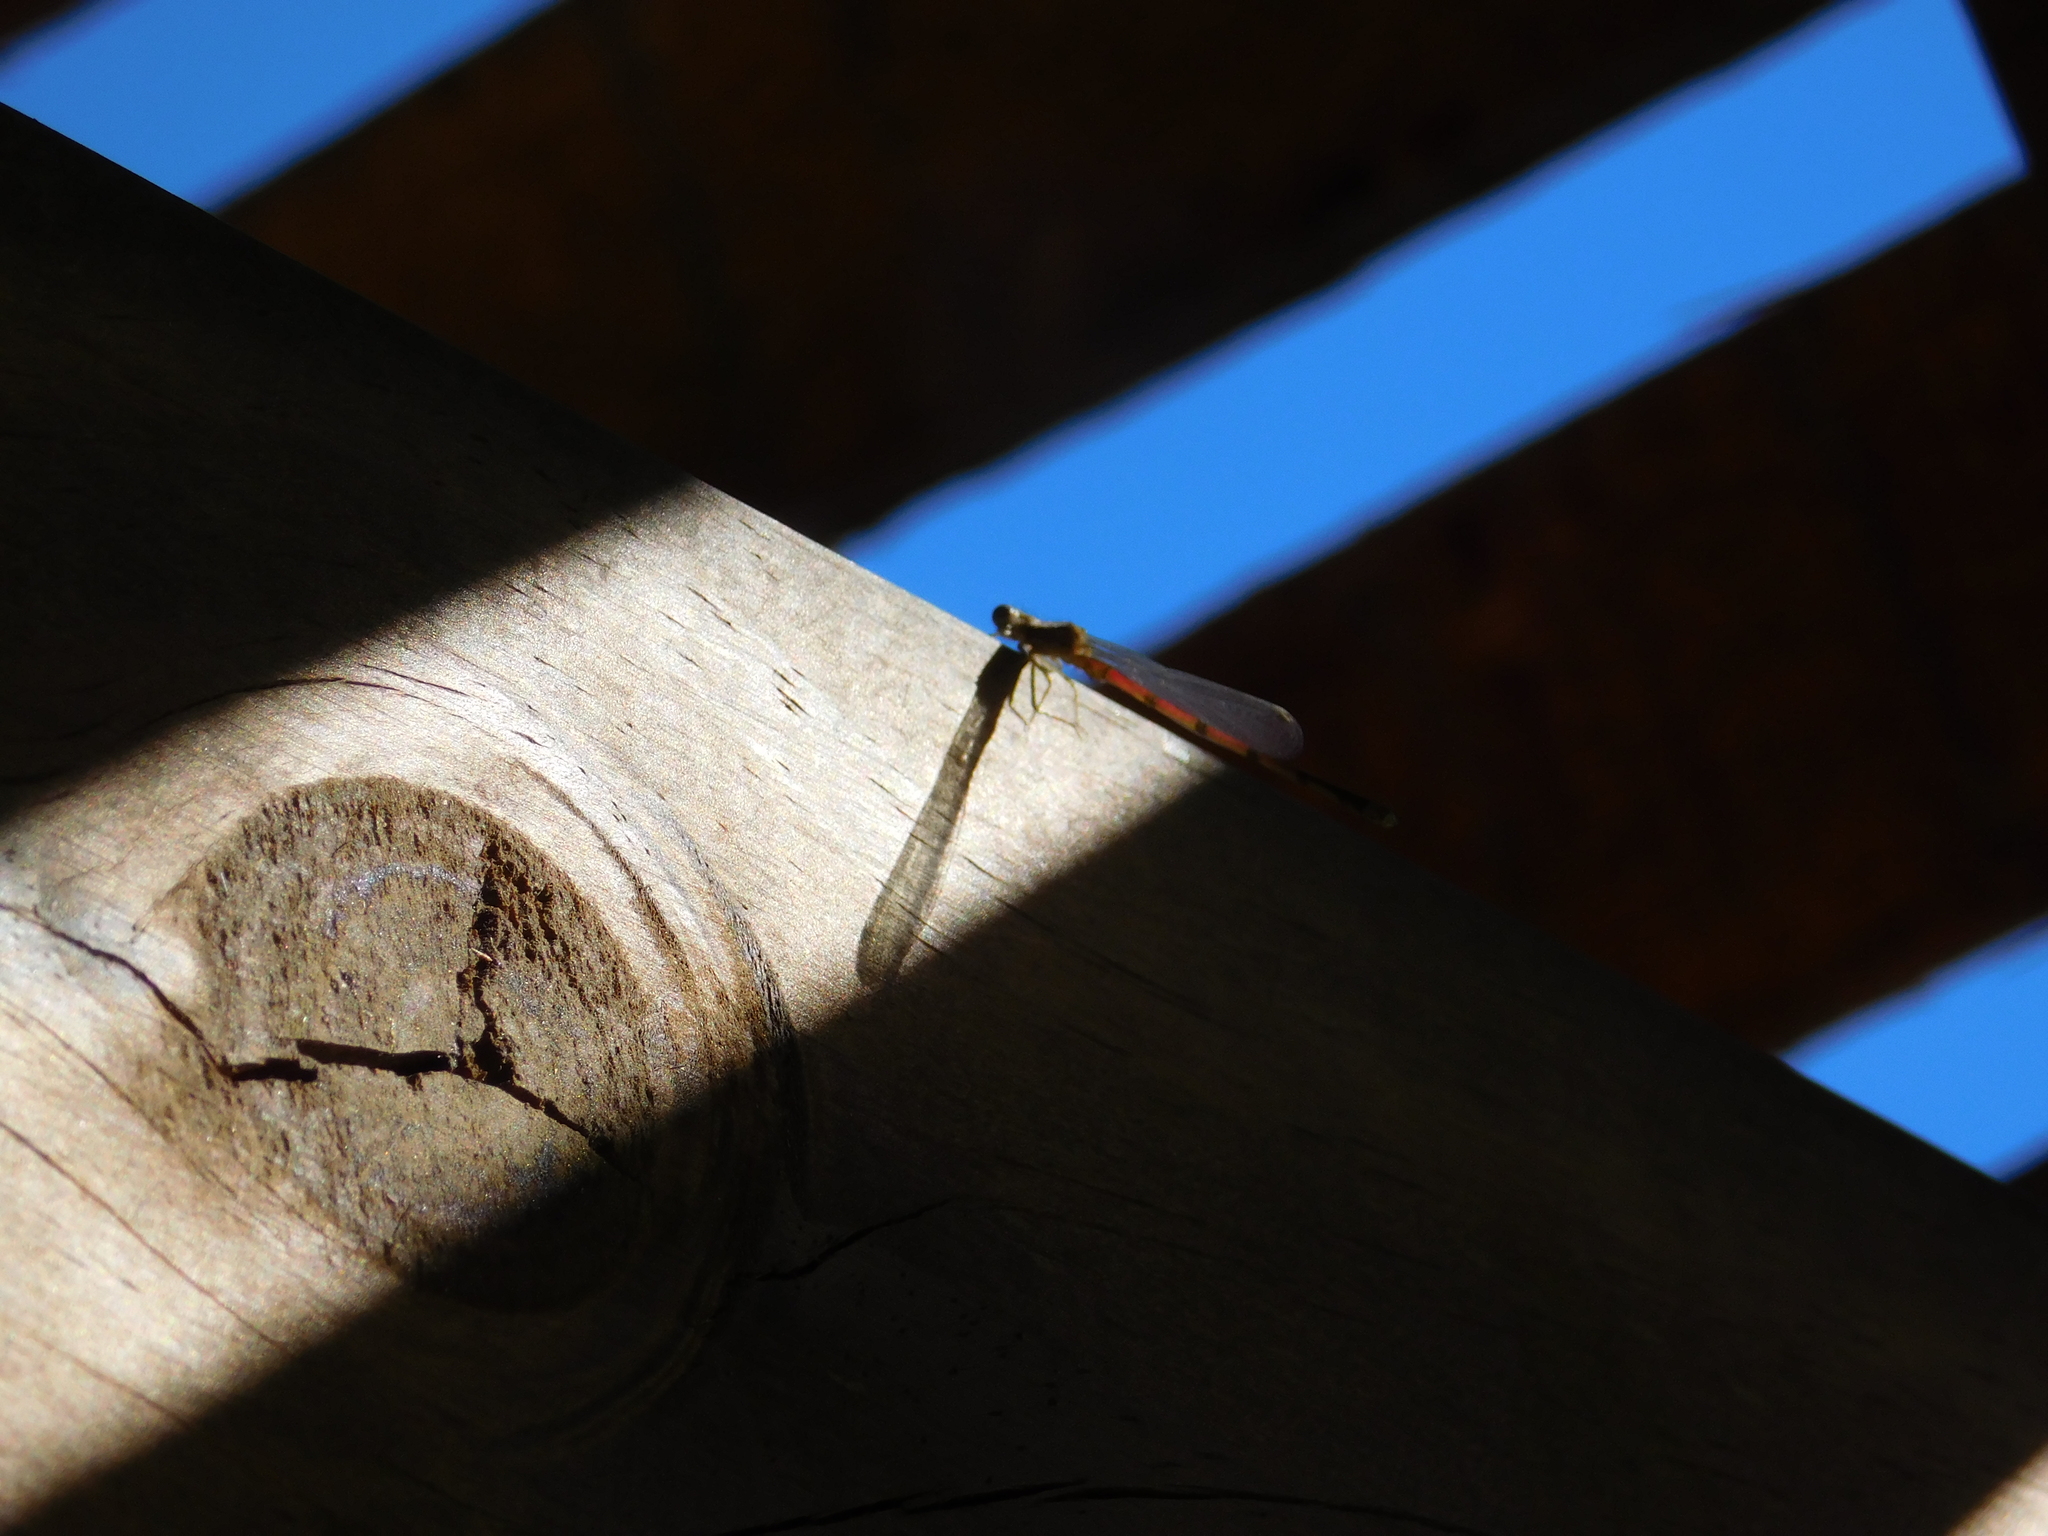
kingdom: Animalia
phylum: Arthropoda
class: Insecta
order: Odonata
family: Coenagrionidae
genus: Oxyagrion
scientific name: Oxyagrion terminale
